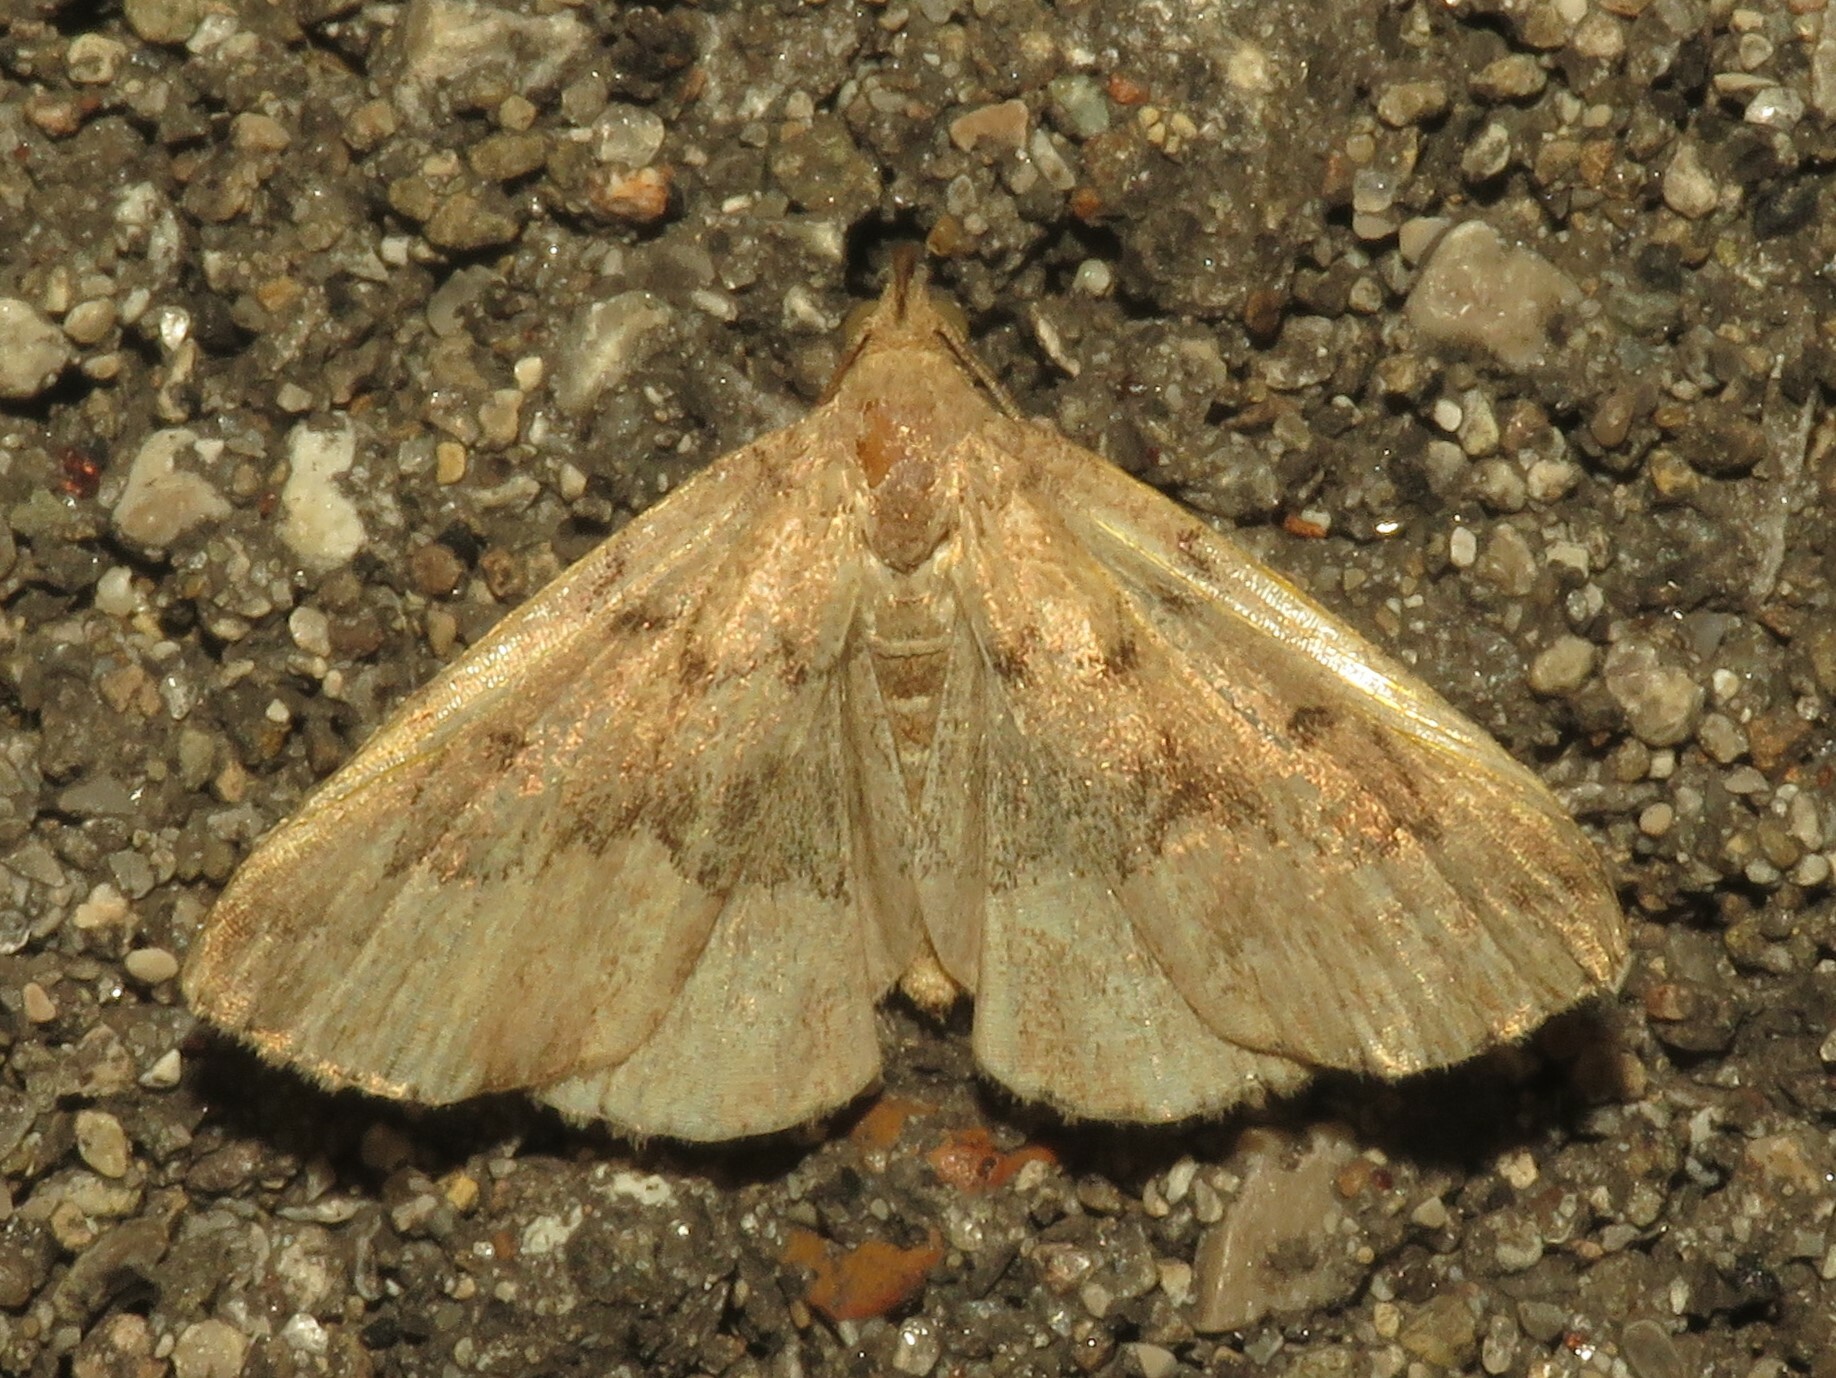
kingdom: Animalia
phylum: Arthropoda
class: Insecta
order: Lepidoptera
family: Erebidae
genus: Zanclognatha
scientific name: Zanclognatha dentata
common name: Toothed fan-foot
